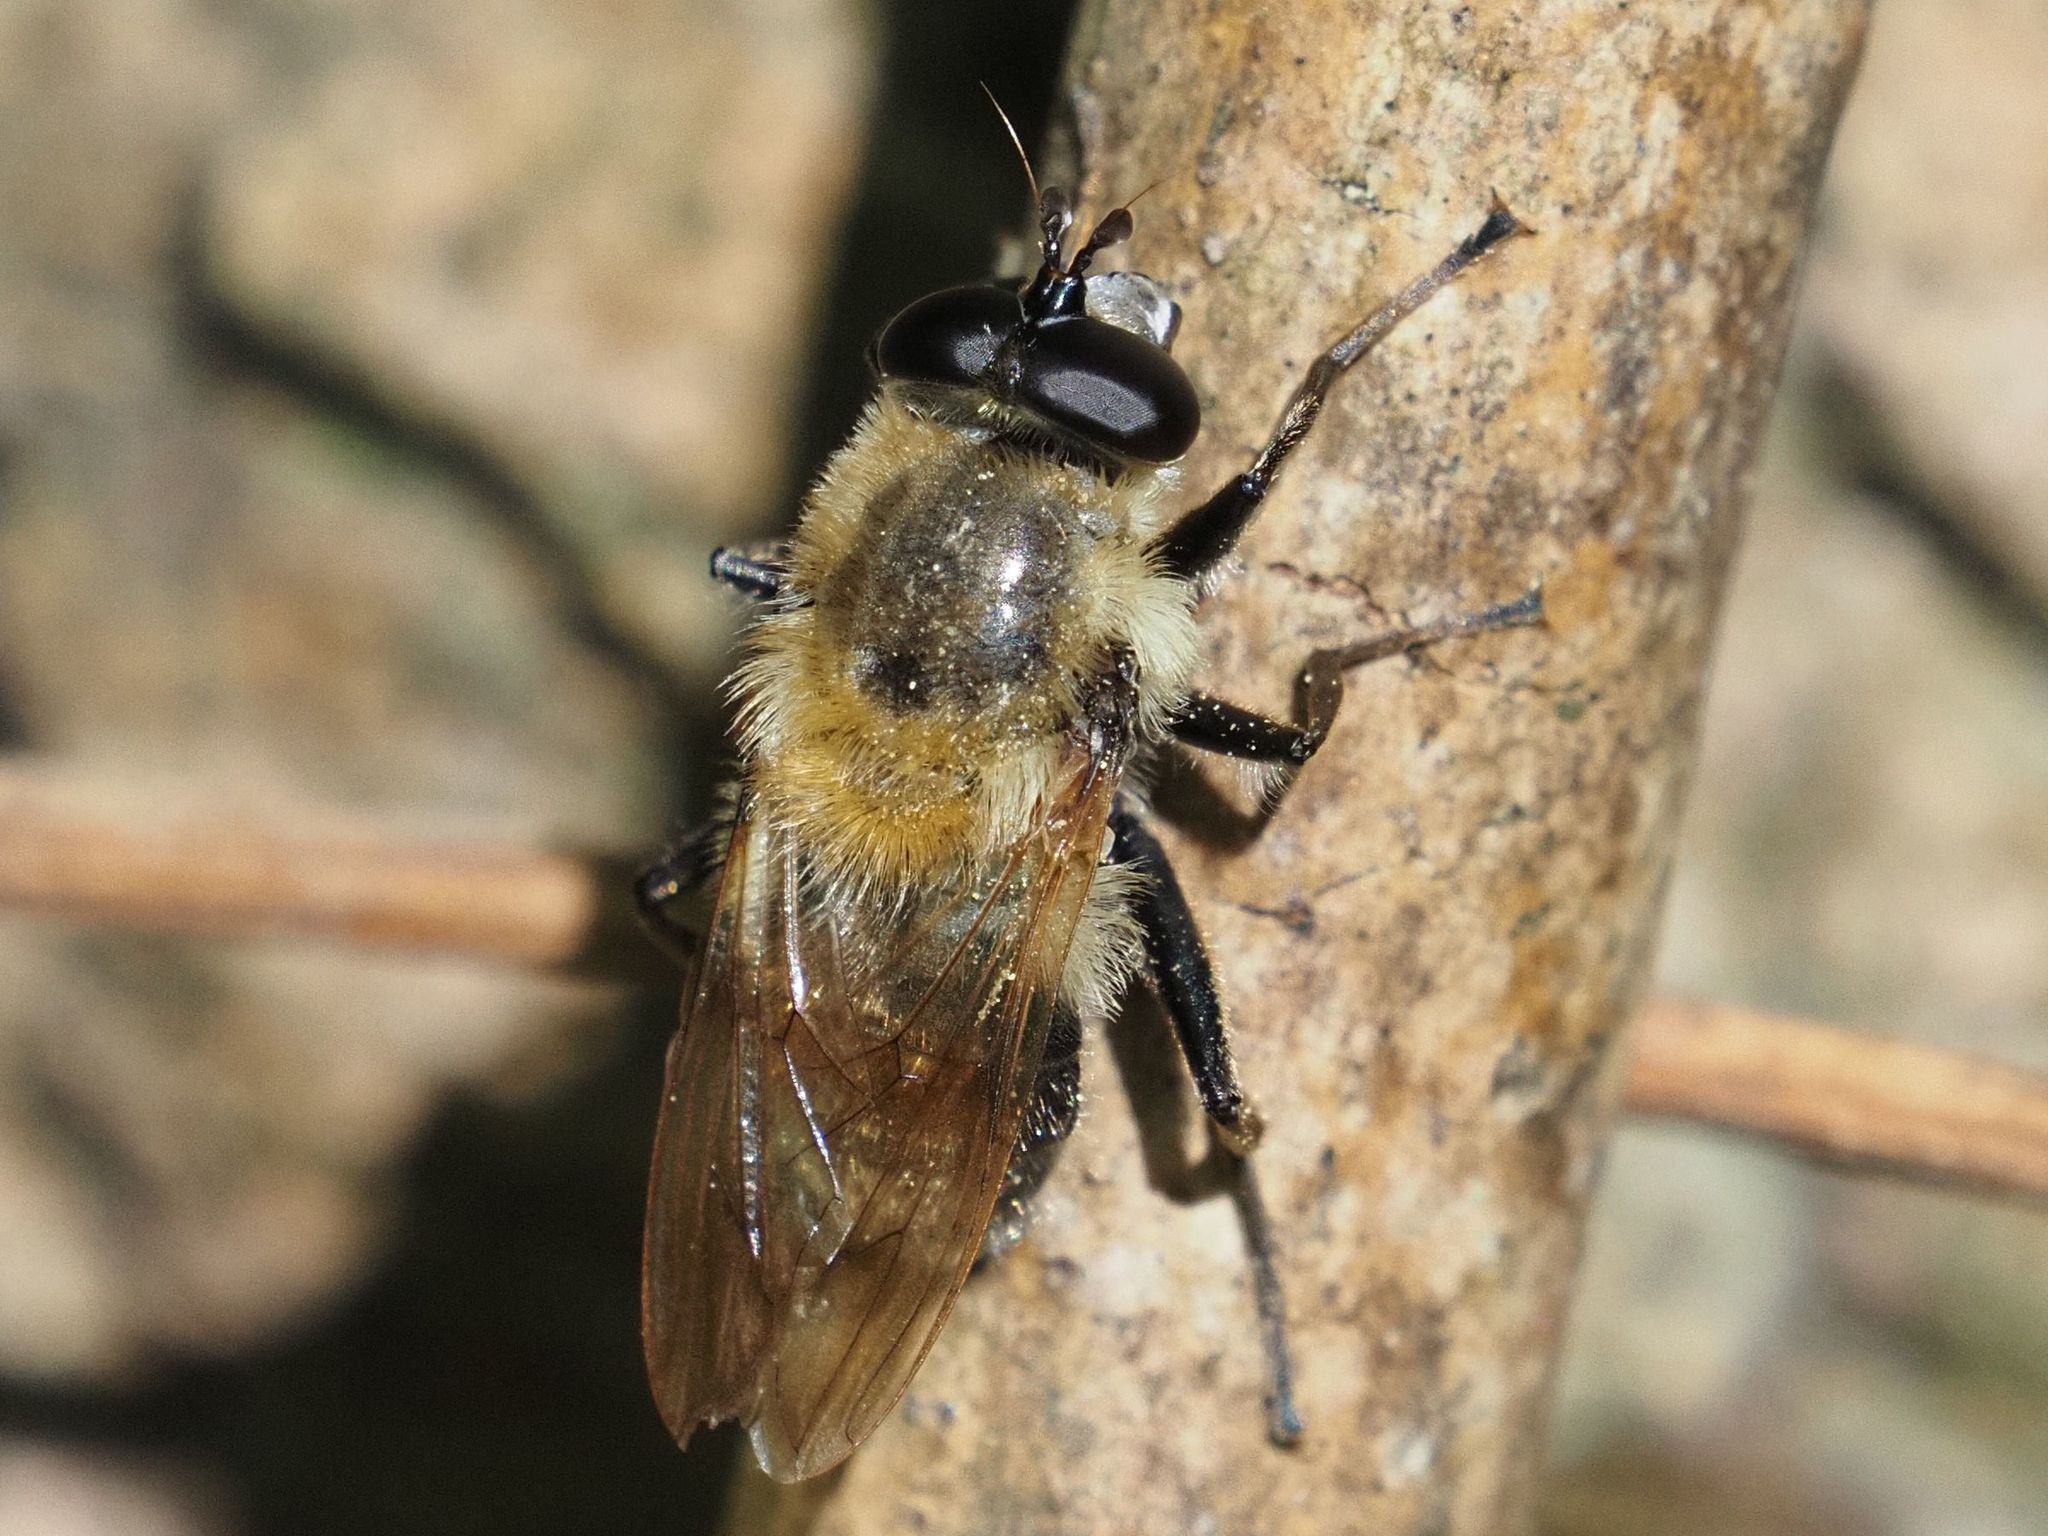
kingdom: Animalia
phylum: Arthropoda
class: Insecta
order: Diptera
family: Syrphidae
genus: Criorhina
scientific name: Criorhina floccosa
